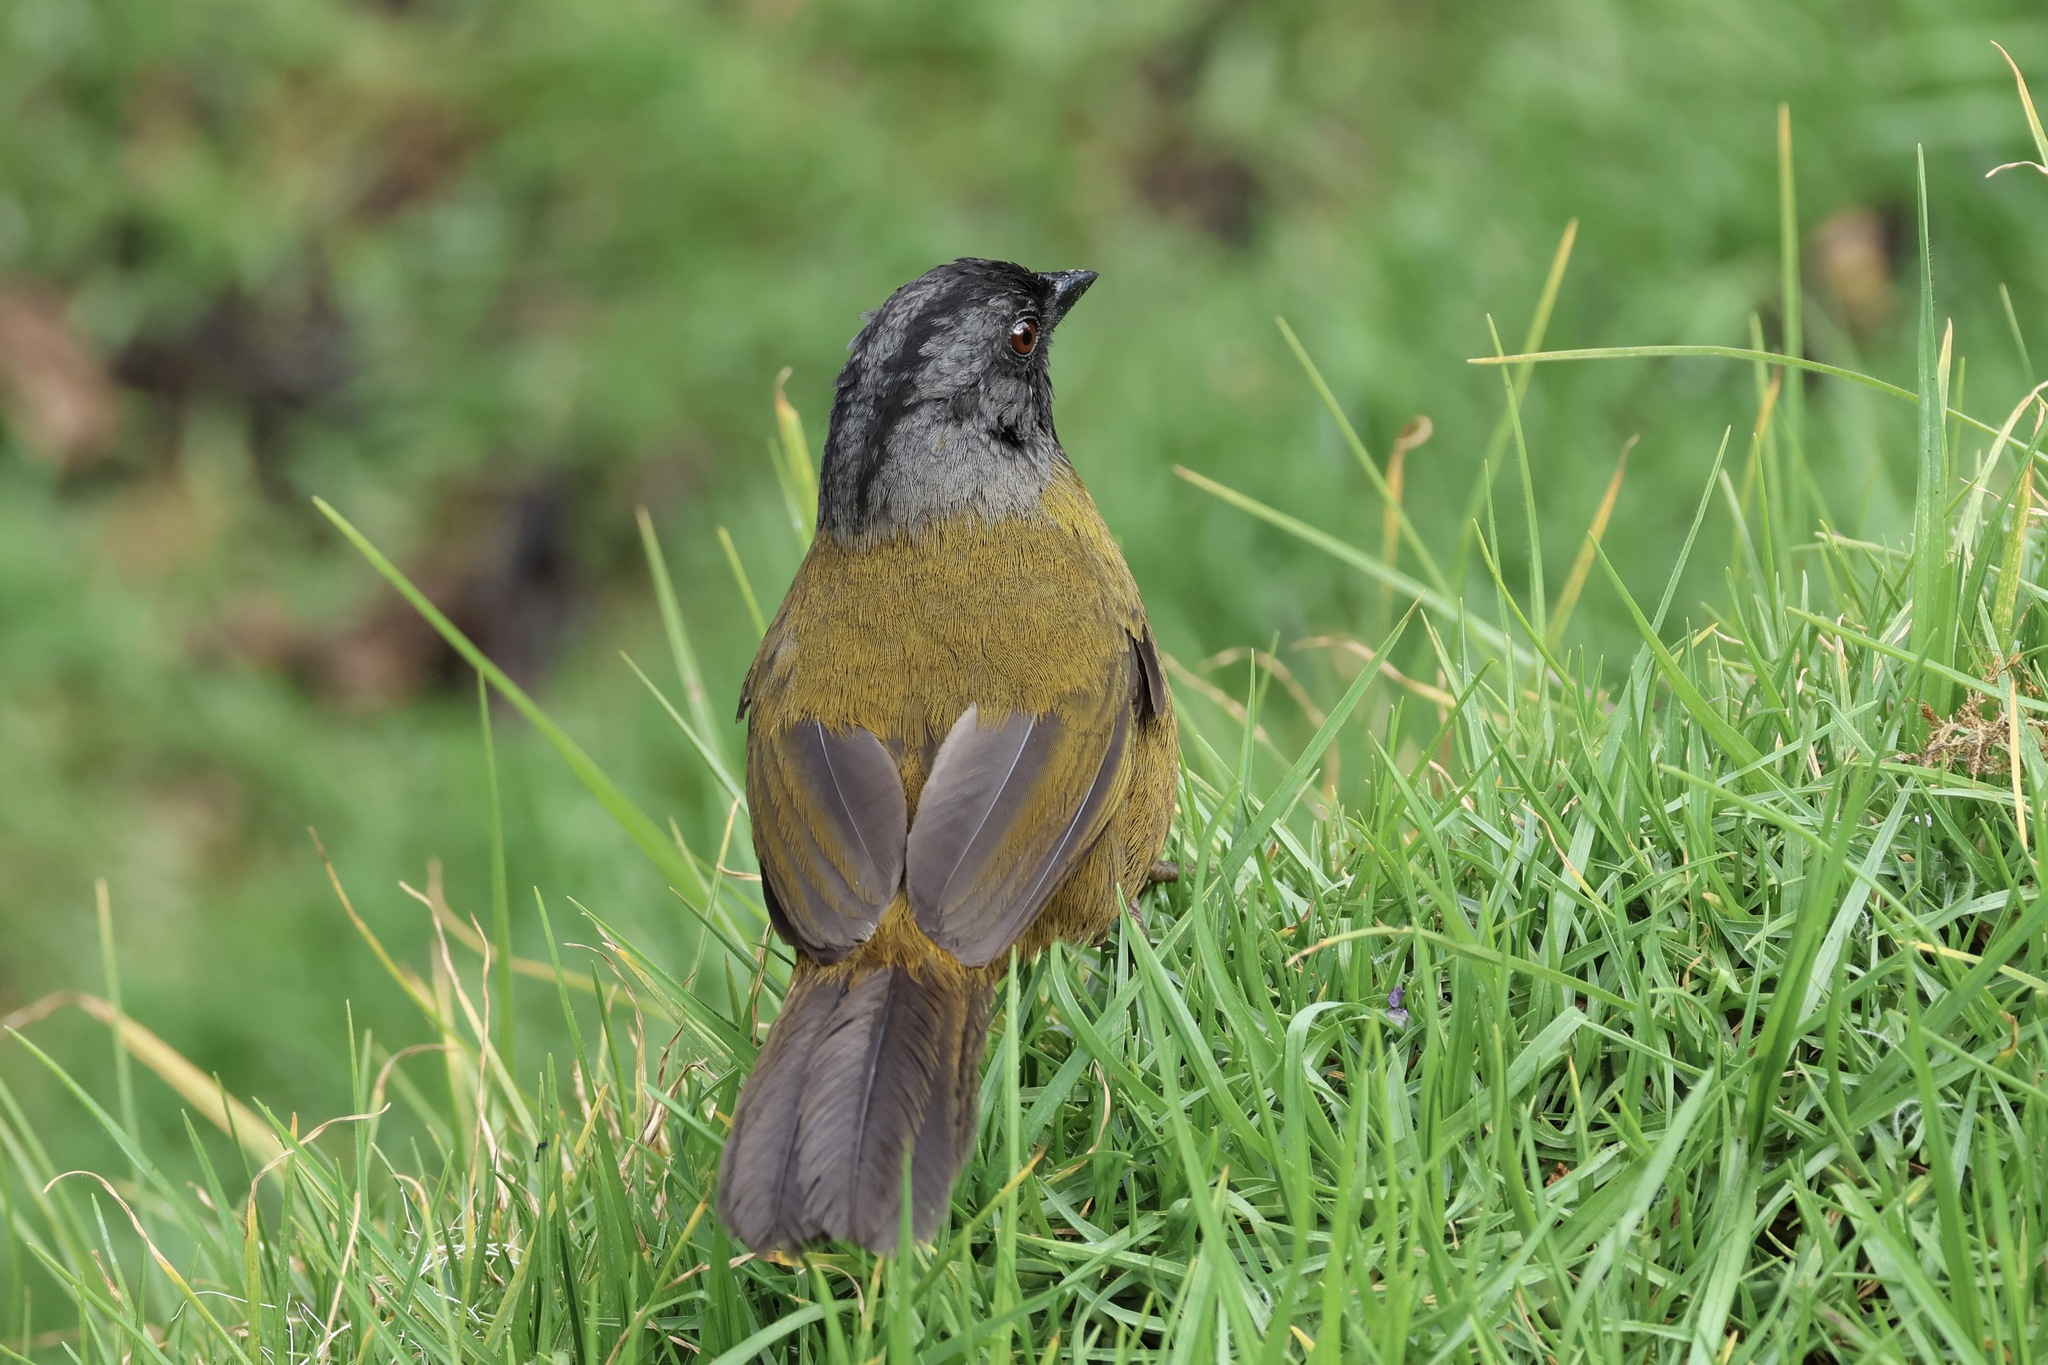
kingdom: Animalia
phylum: Chordata
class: Aves
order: Passeriformes
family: Passerellidae
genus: Pezopetes
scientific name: Pezopetes capitalis
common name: Large-footed finch
